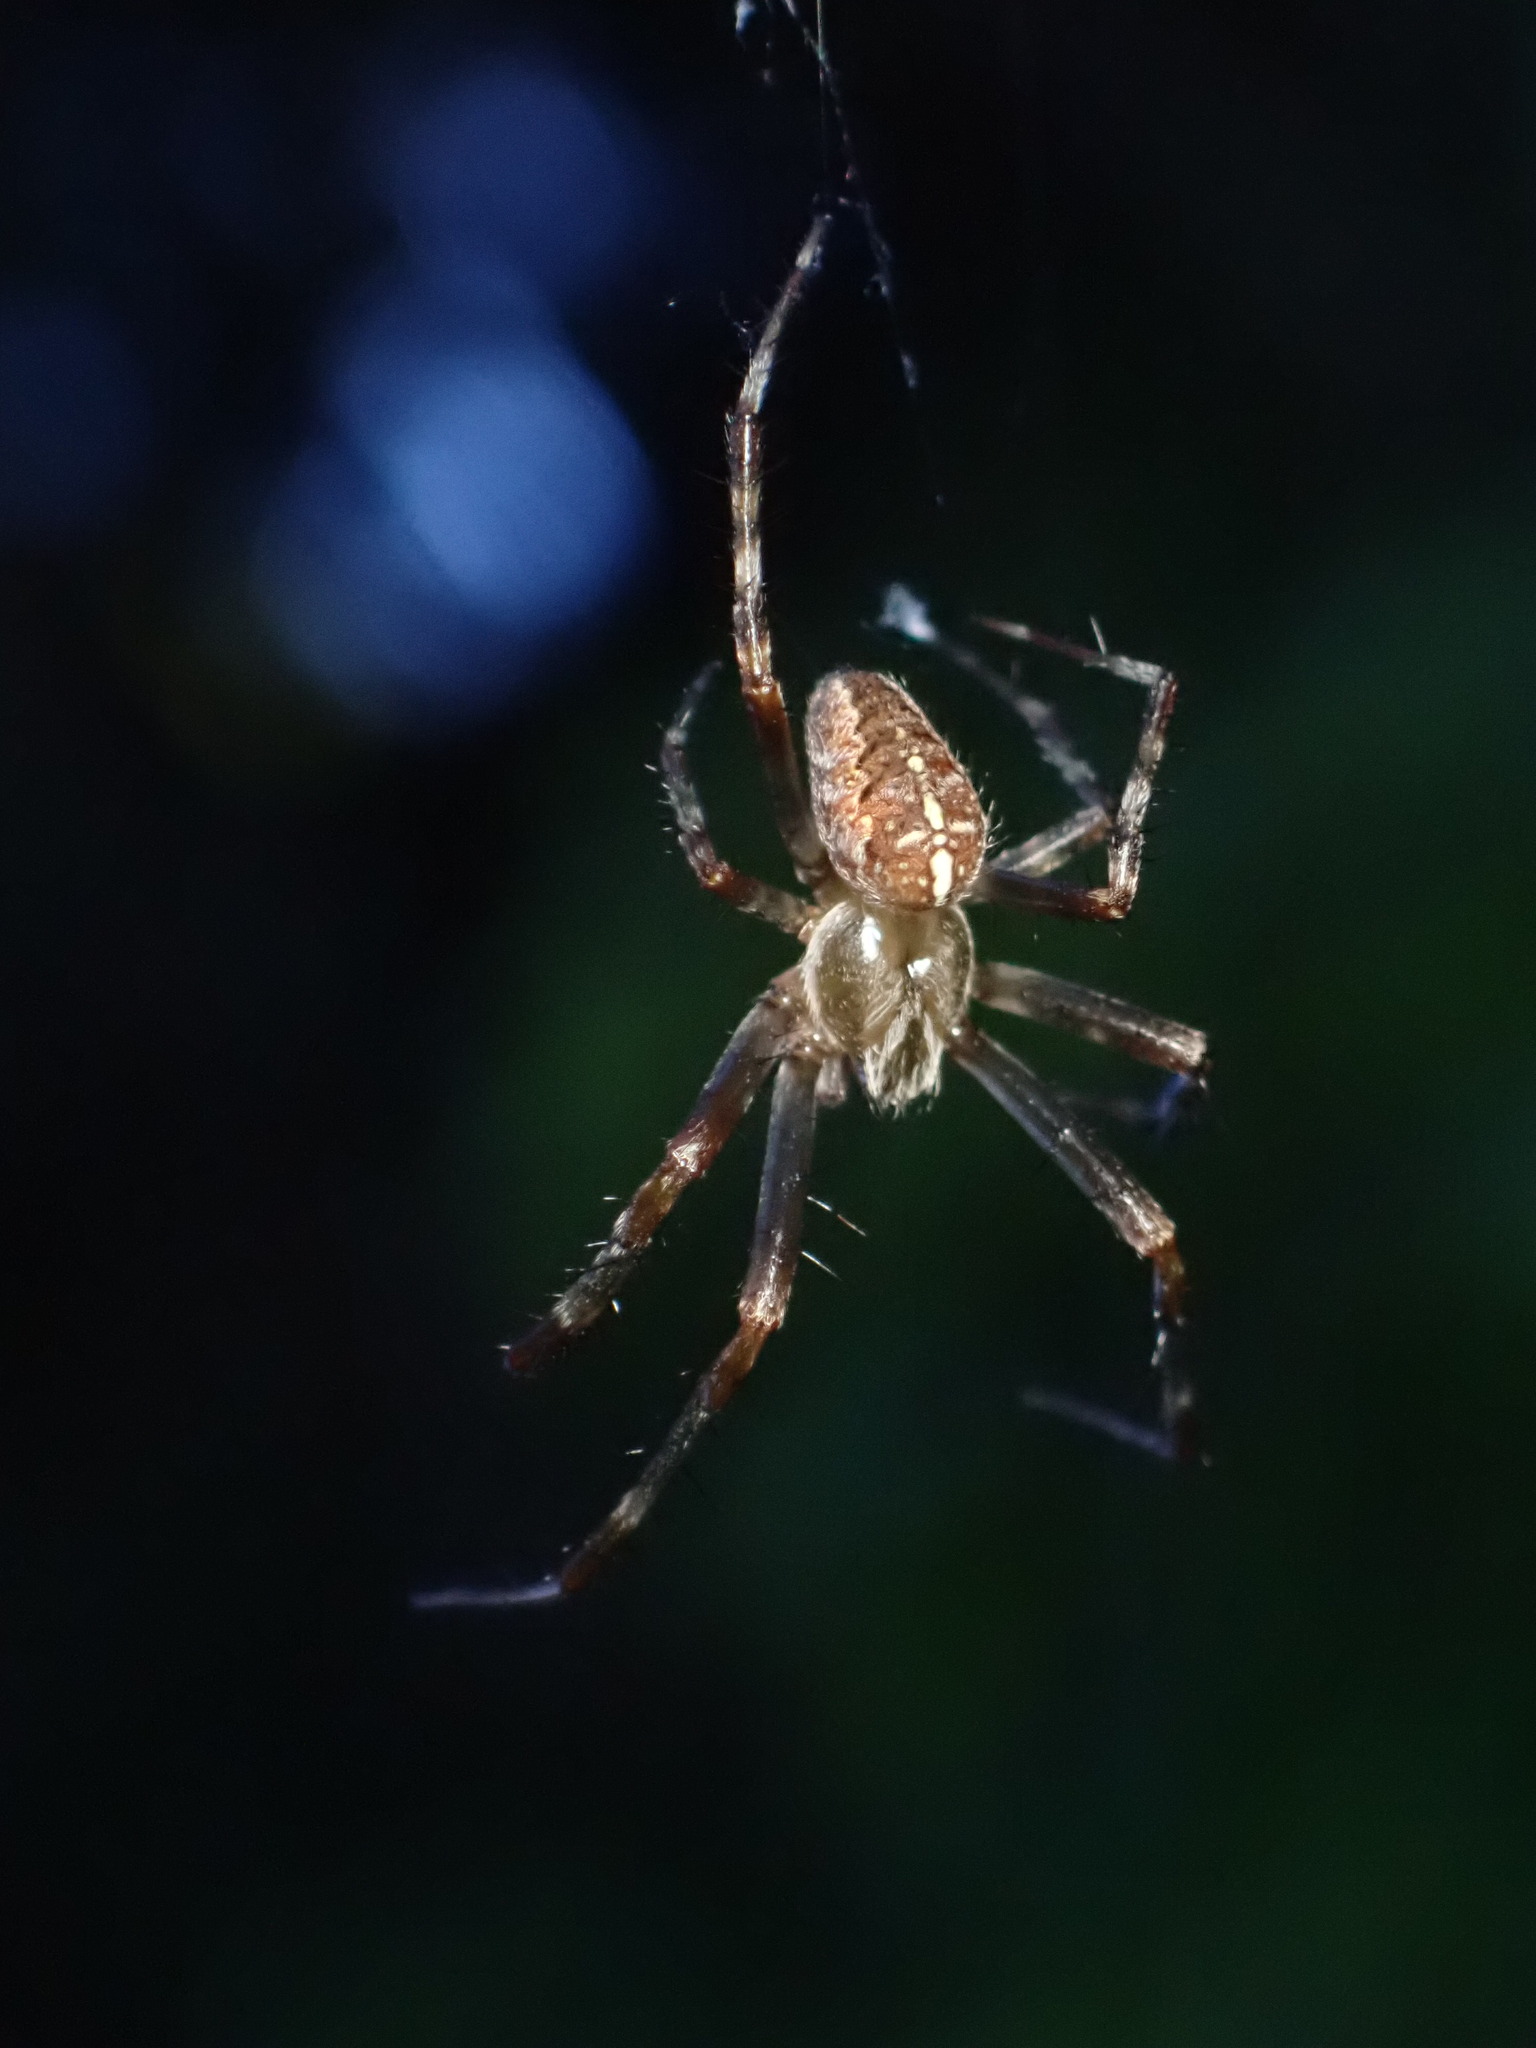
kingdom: Animalia
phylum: Arthropoda
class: Arachnida
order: Araneae
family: Araneidae
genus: Araneus
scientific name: Araneus diadematus
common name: Cross orbweaver
